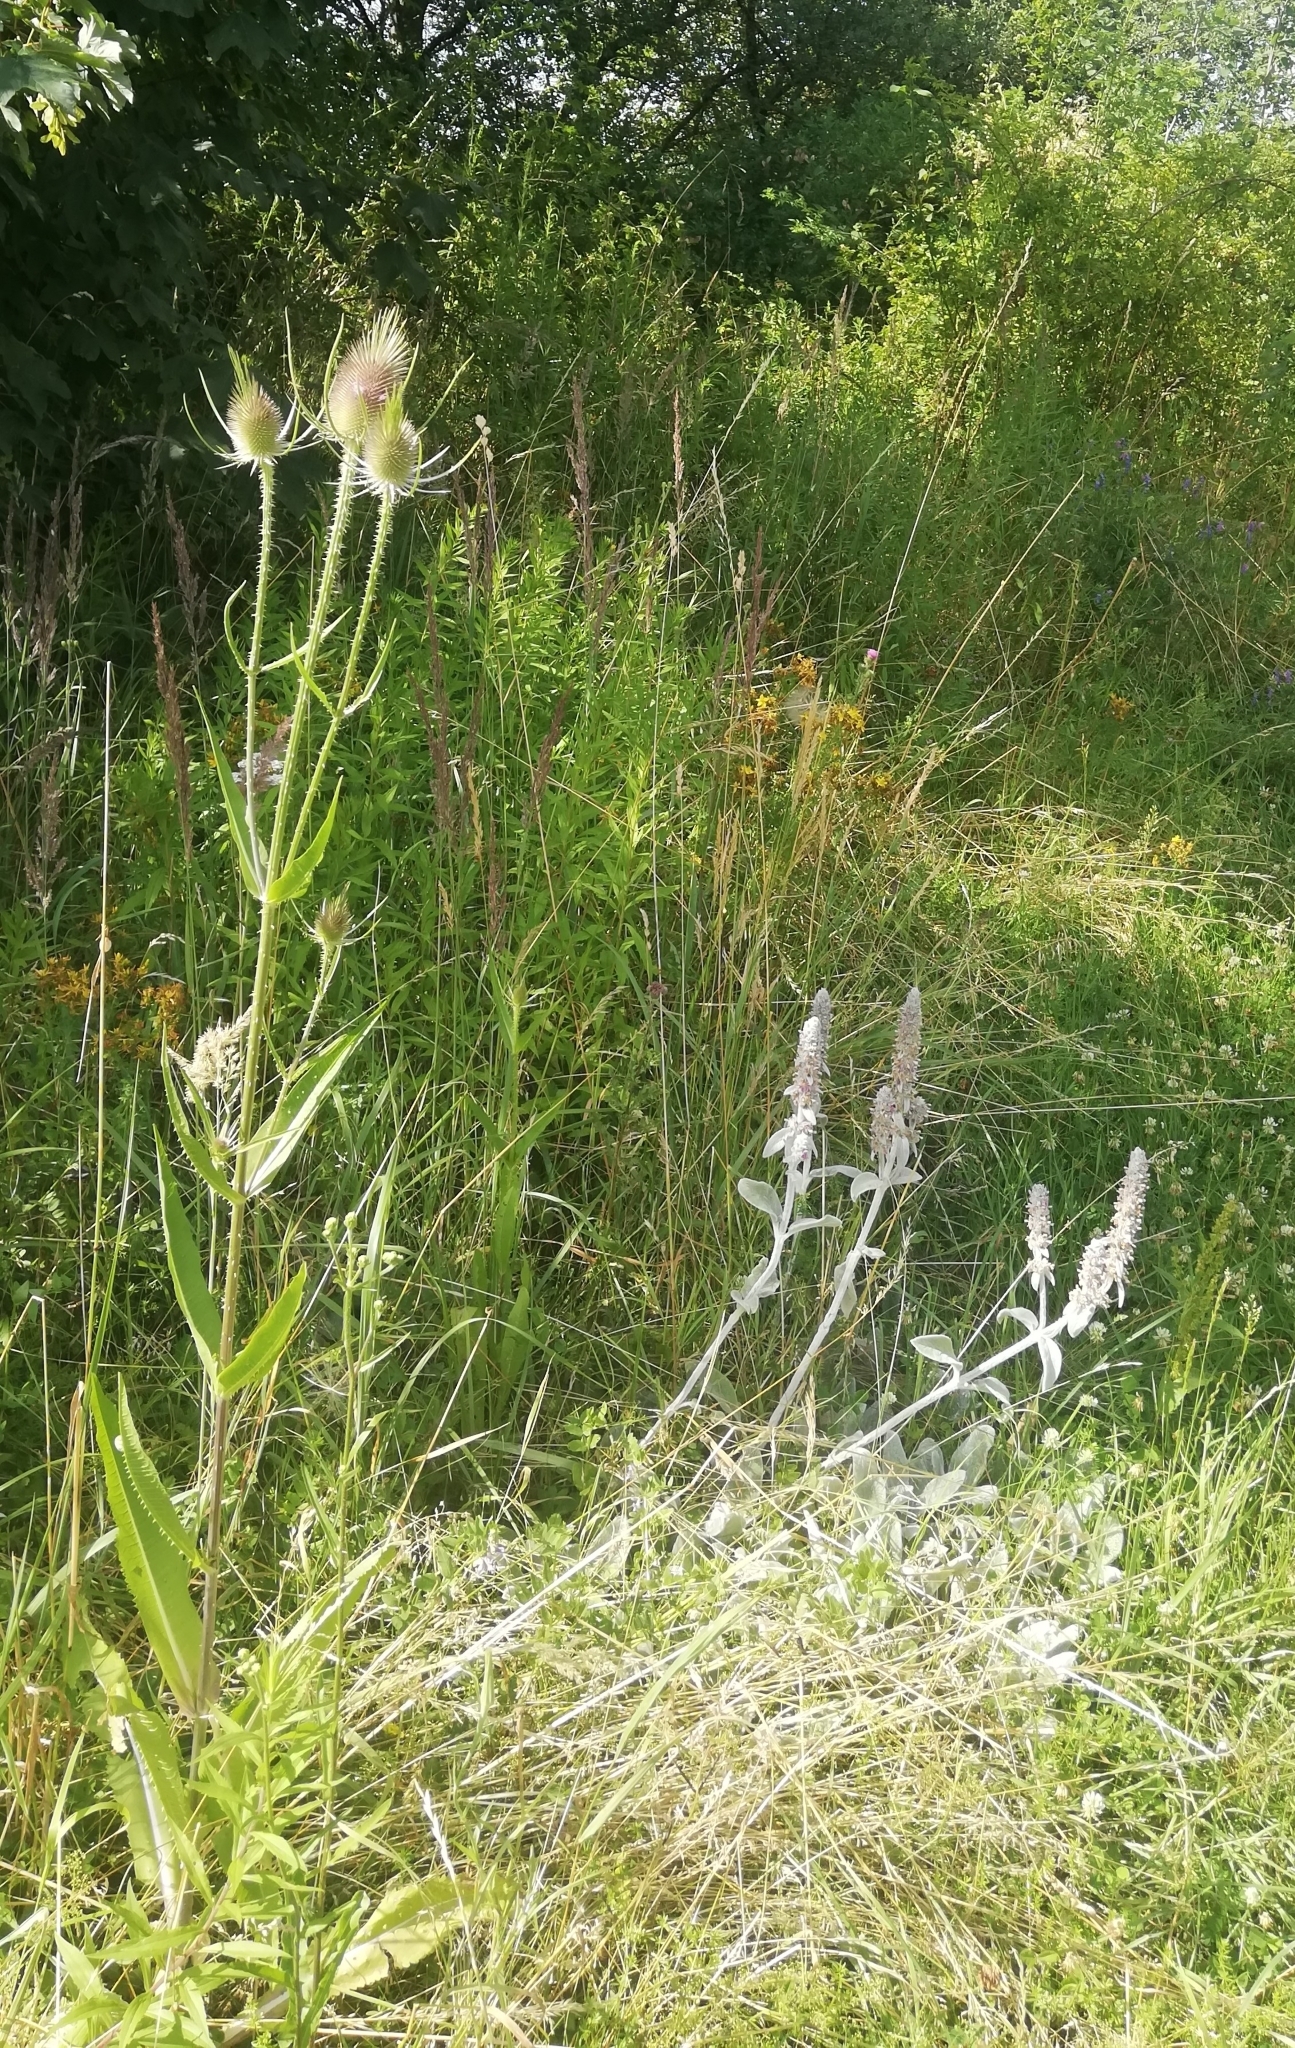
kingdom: Plantae
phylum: Tracheophyta
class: Magnoliopsida
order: Dipsacales
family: Caprifoliaceae
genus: Dipsacus
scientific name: Dipsacus fullonum
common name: Teasel
